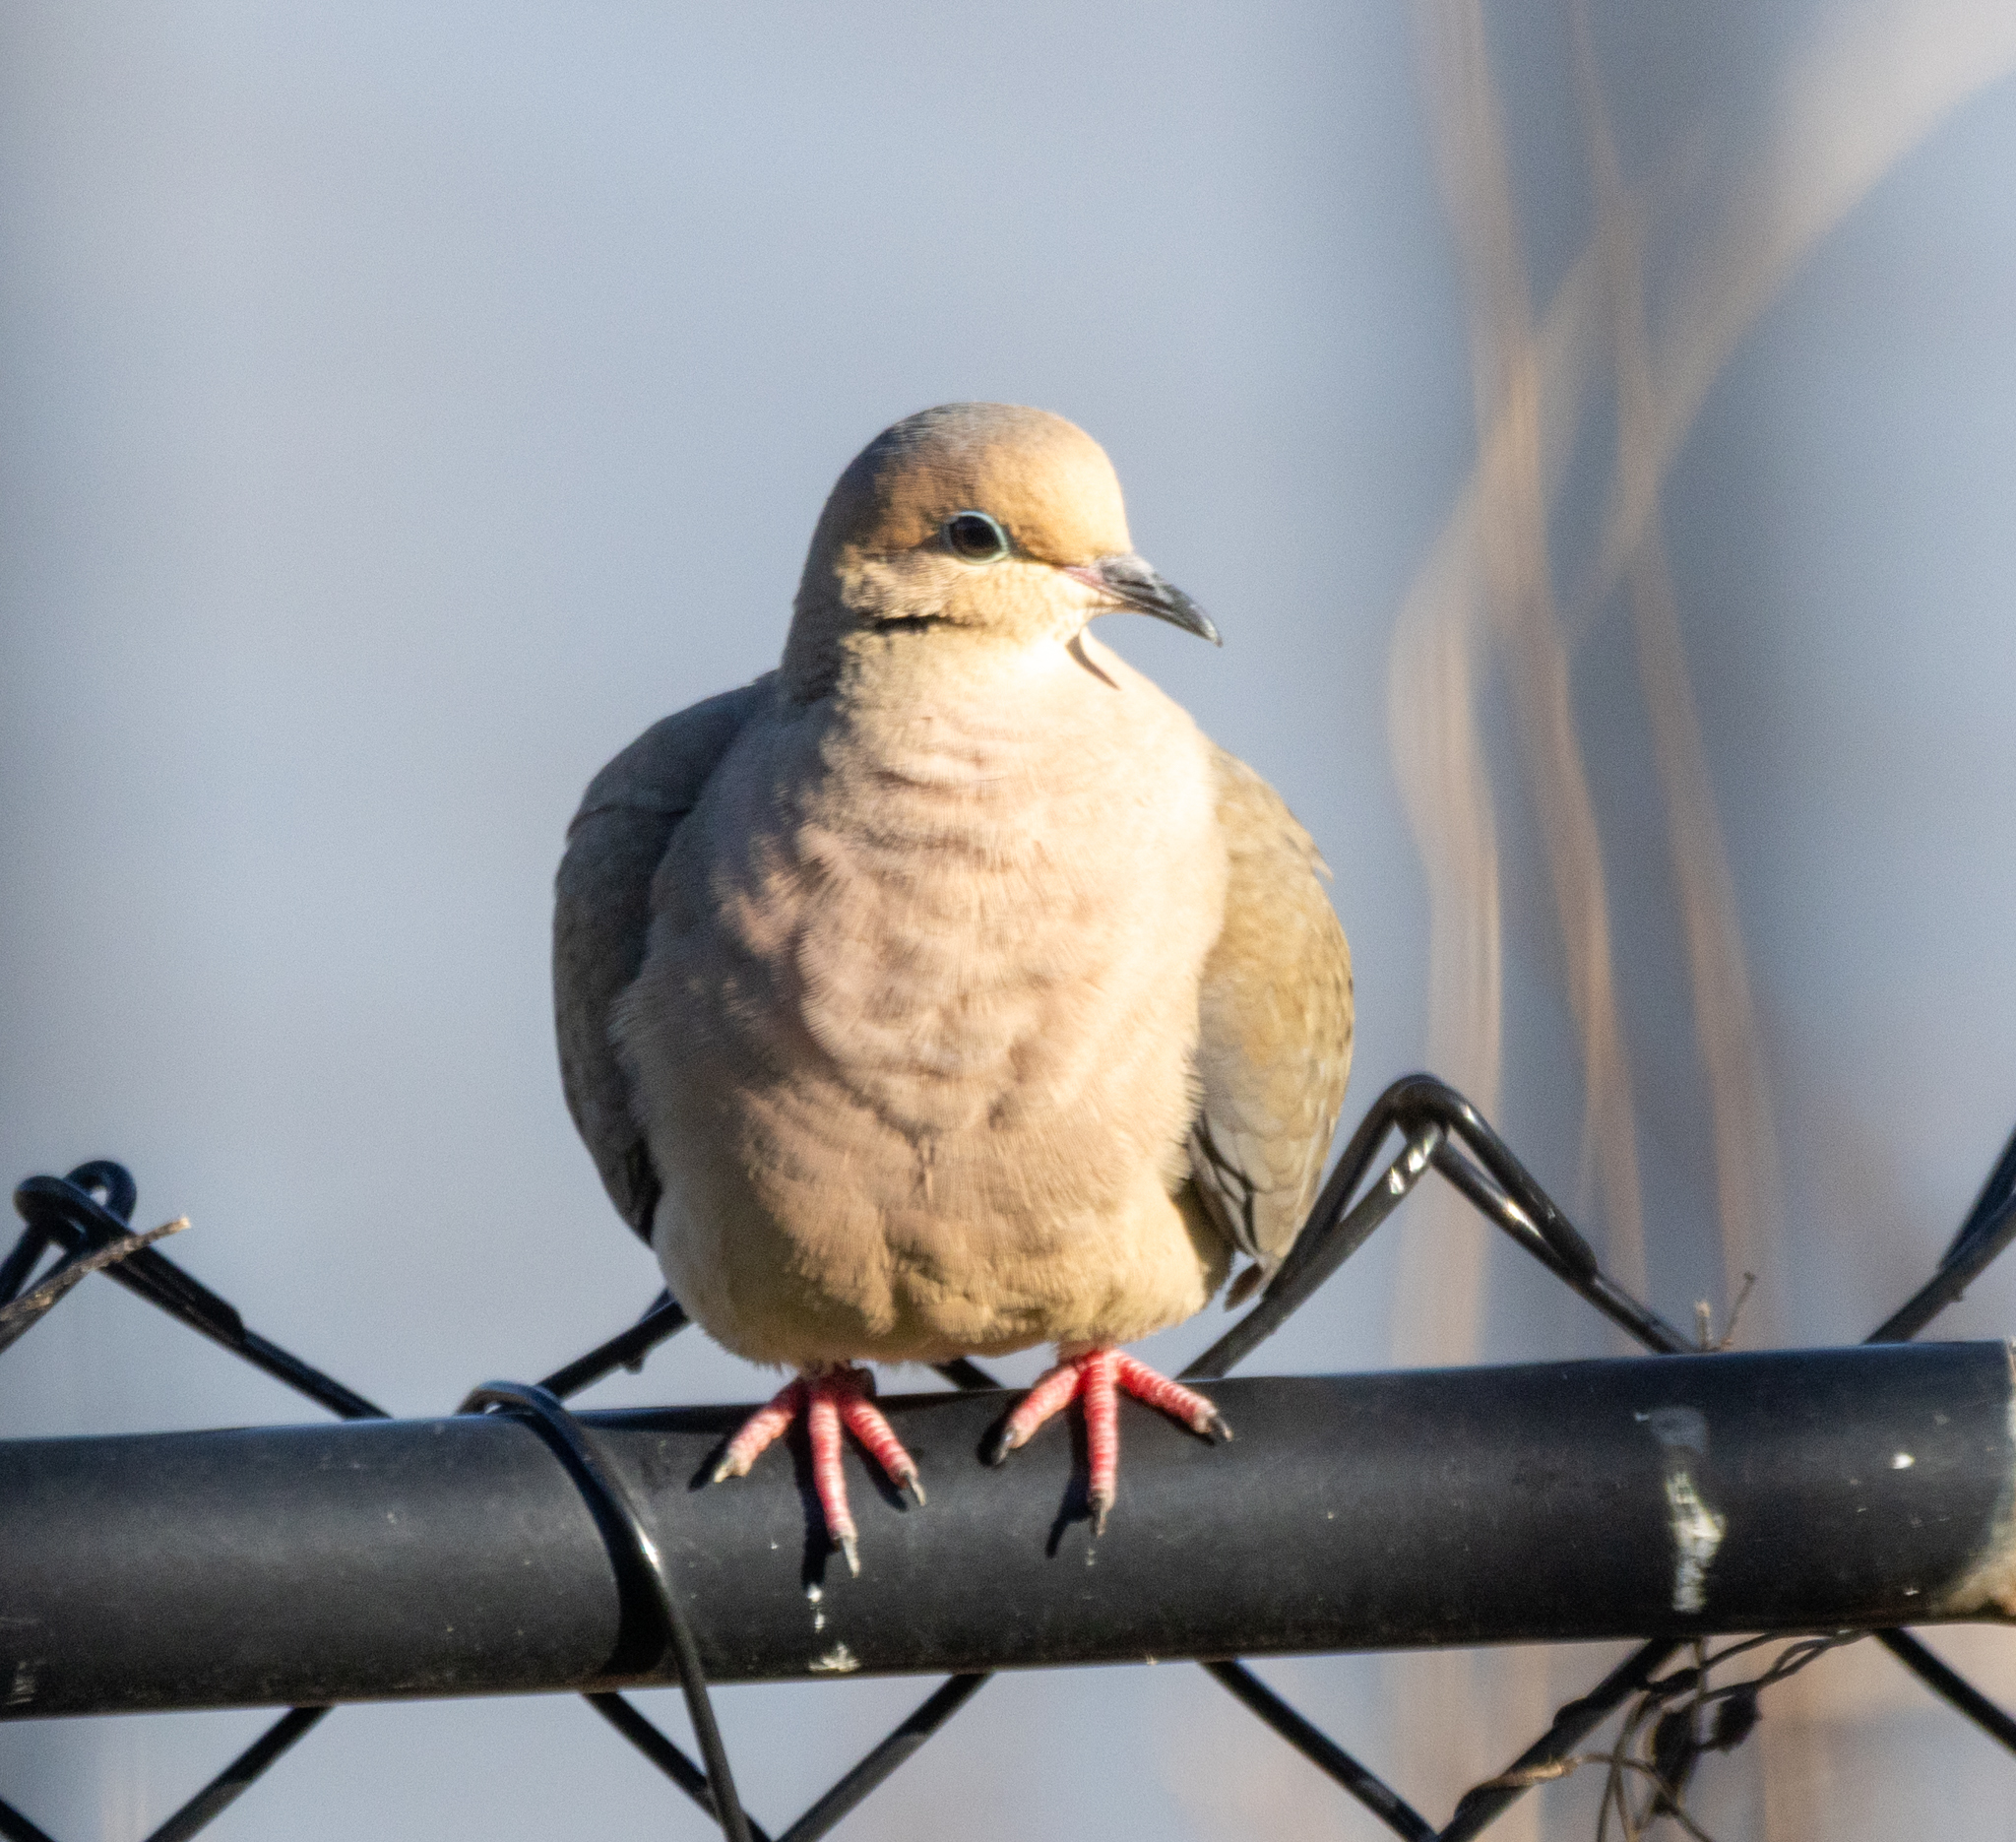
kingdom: Animalia
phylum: Chordata
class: Aves
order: Columbiformes
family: Columbidae
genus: Zenaida
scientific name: Zenaida macroura
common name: Mourning dove
